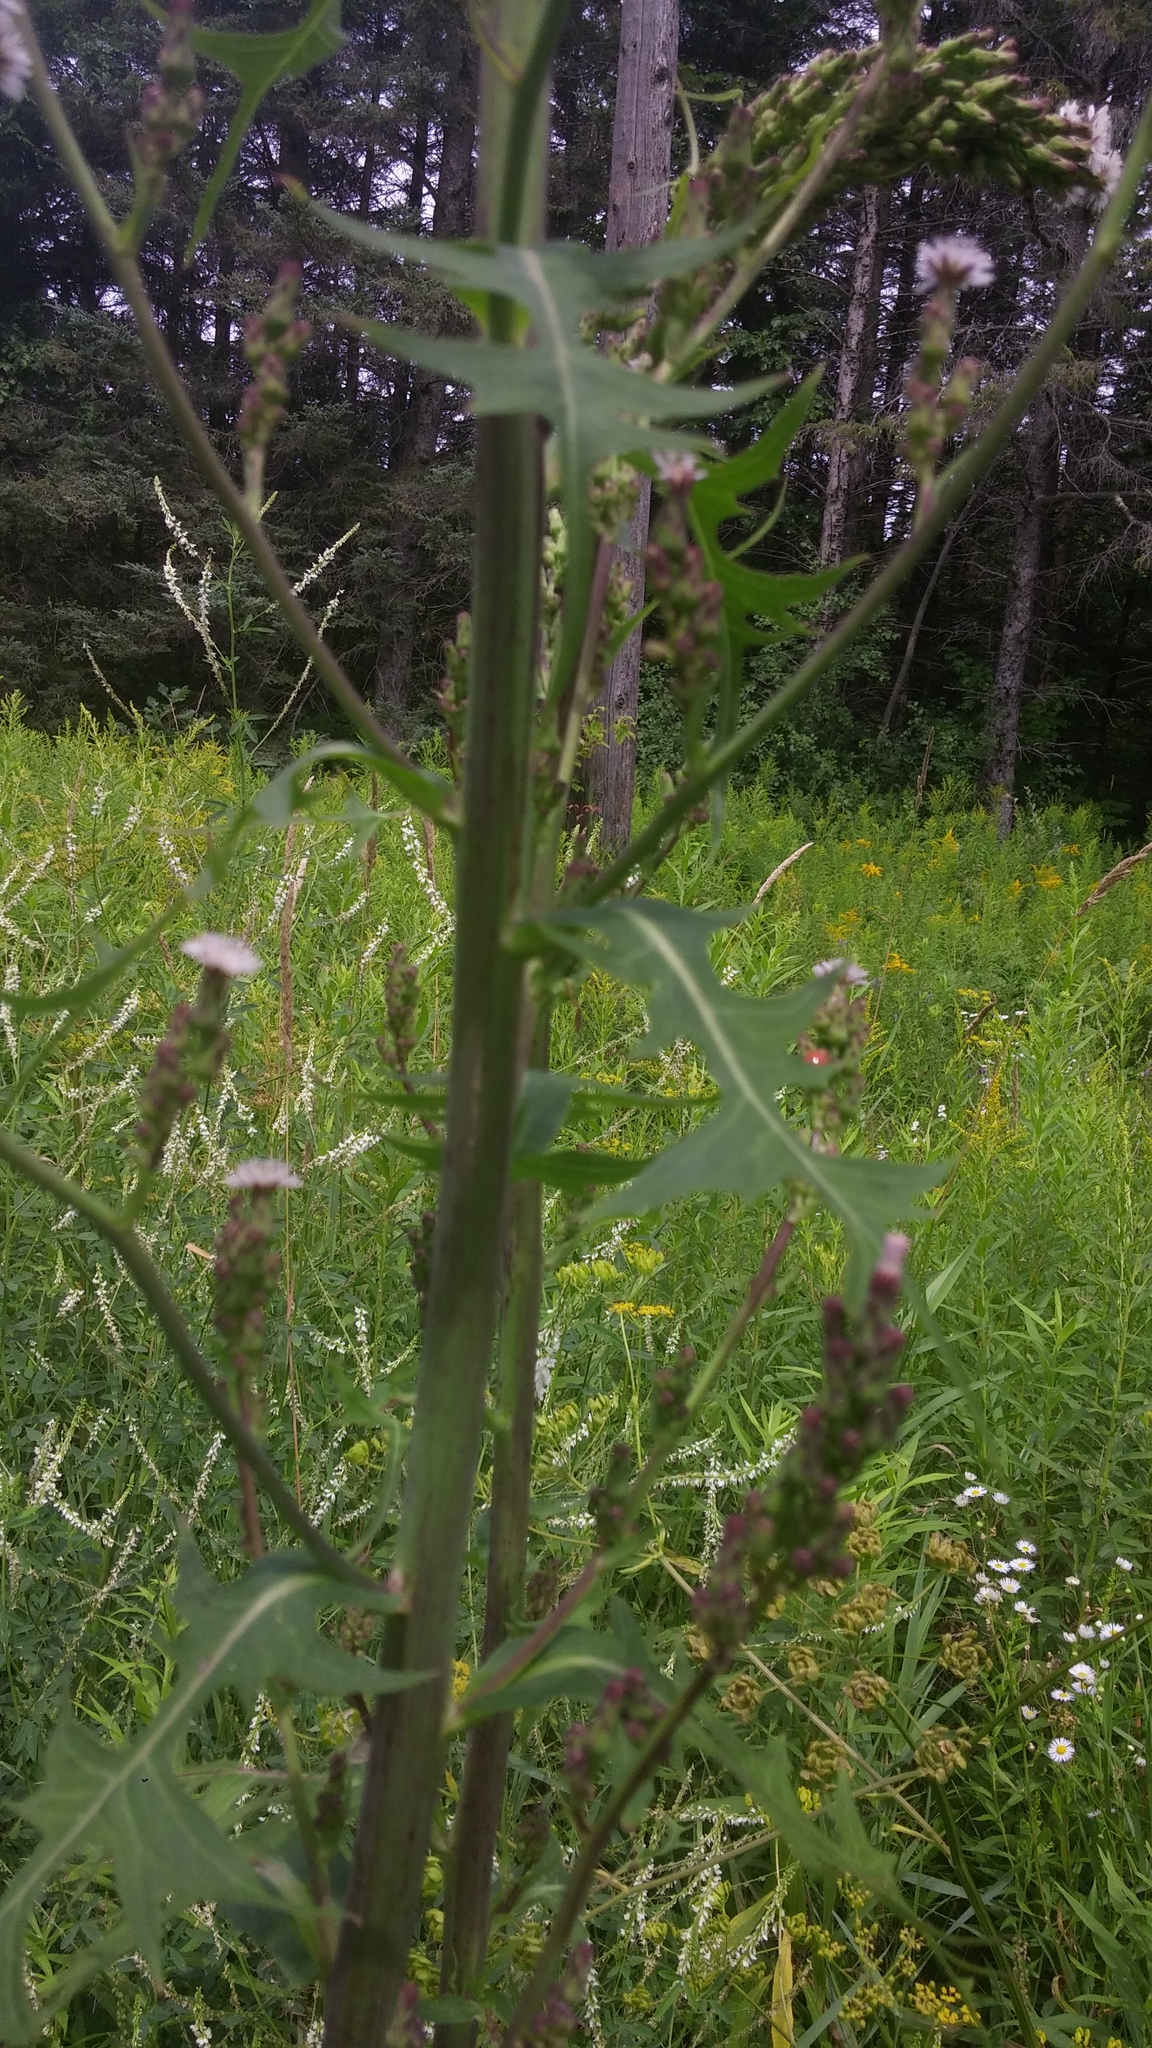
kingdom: Plantae
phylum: Tracheophyta
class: Magnoliopsida
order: Asterales
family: Asteraceae
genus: Lactuca
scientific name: Lactuca biennis
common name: Blue wood lettuce
